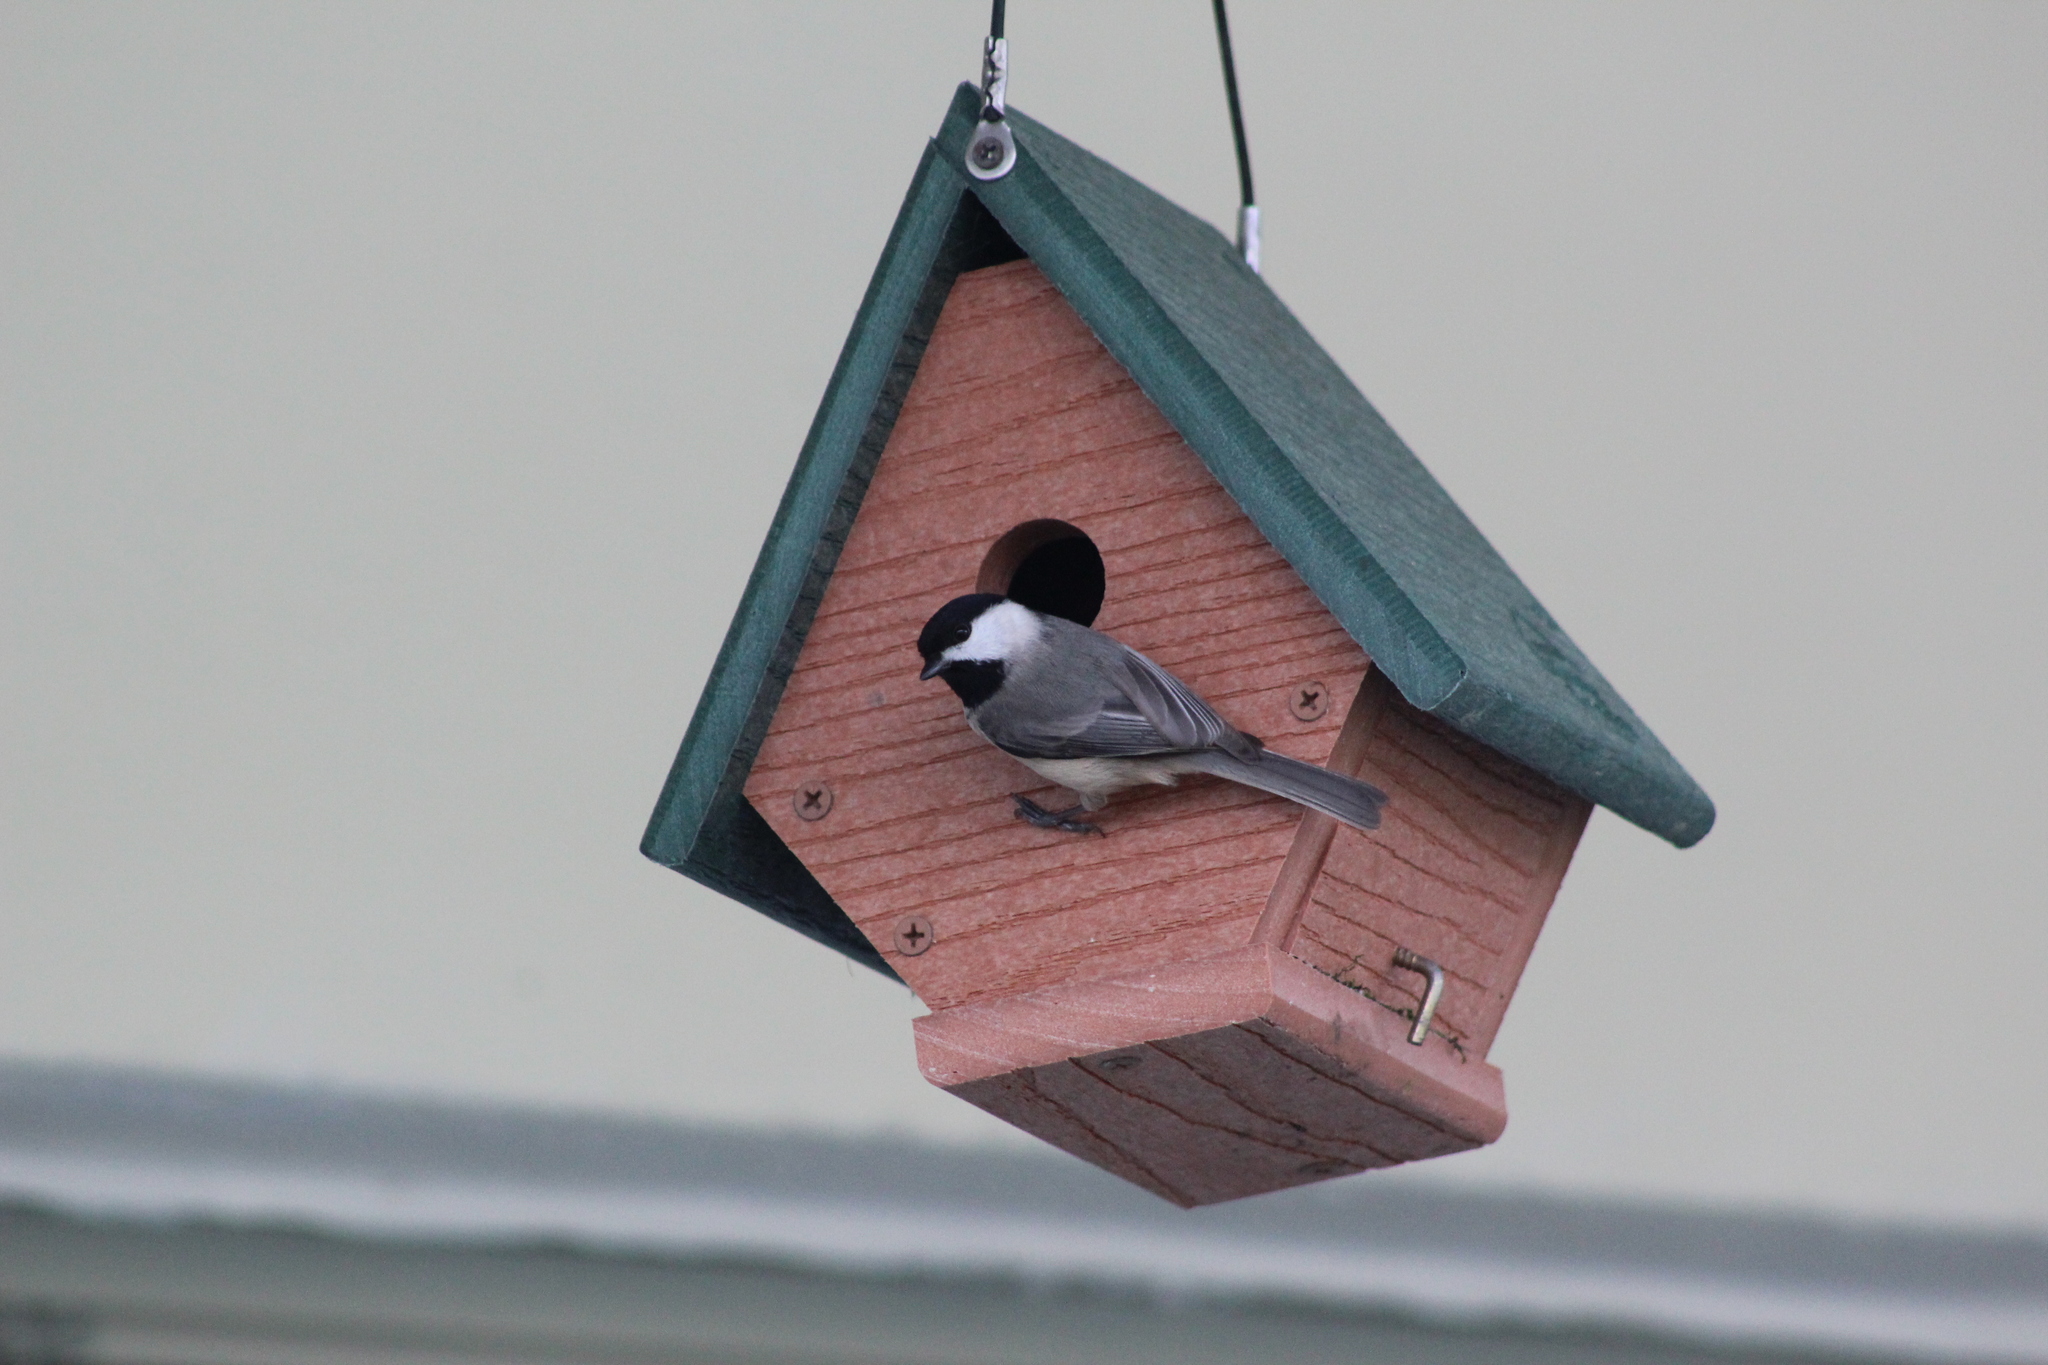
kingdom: Animalia
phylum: Chordata
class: Aves
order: Passeriformes
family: Paridae
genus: Poecile
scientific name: Poecile carolinensis
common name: Carolina chickadee
